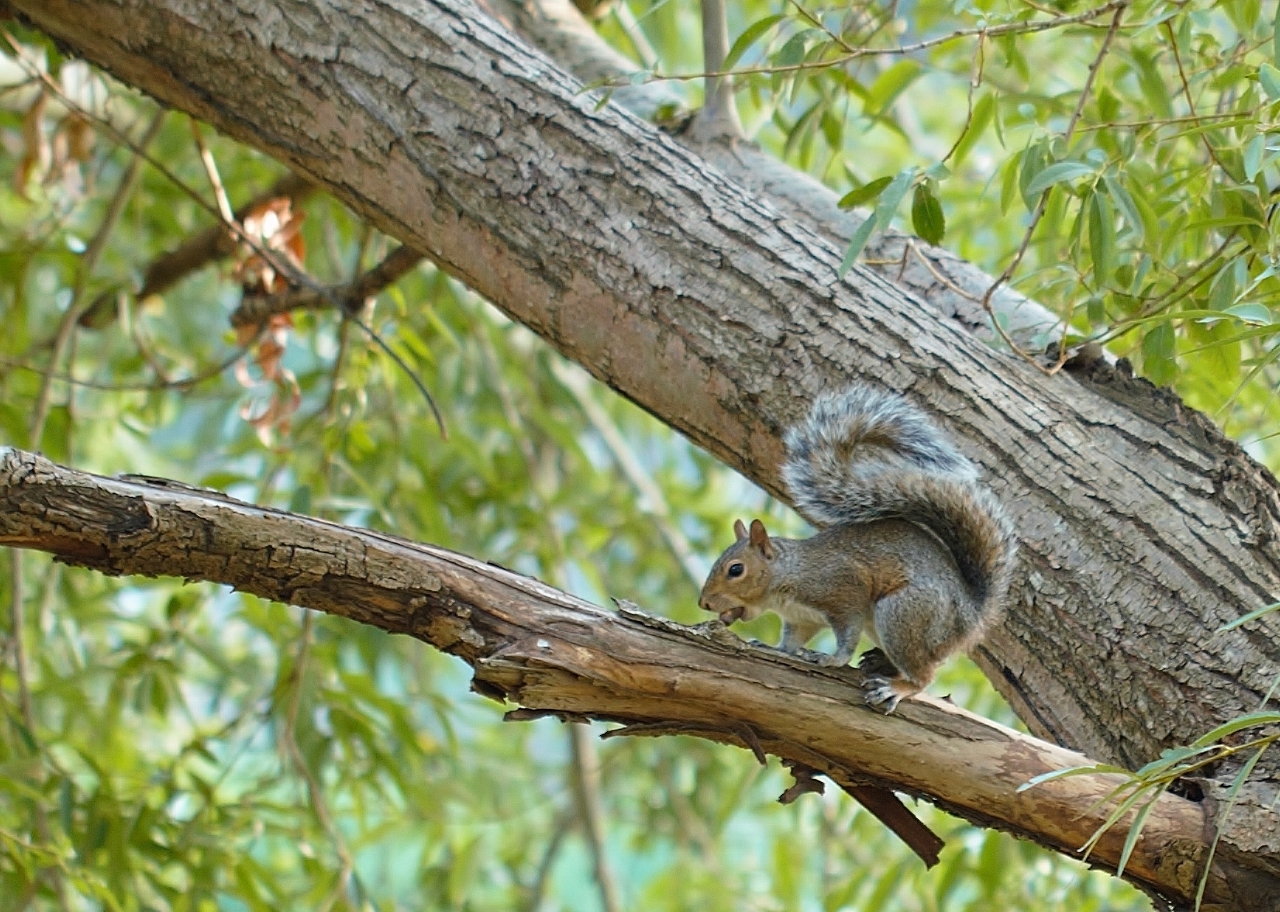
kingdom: Animalia
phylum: Chordata
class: Mammalia
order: Rodentia
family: Sciuridae
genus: Sciurus
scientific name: Sciurus carolinensis
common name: Eastern gray squirrel
